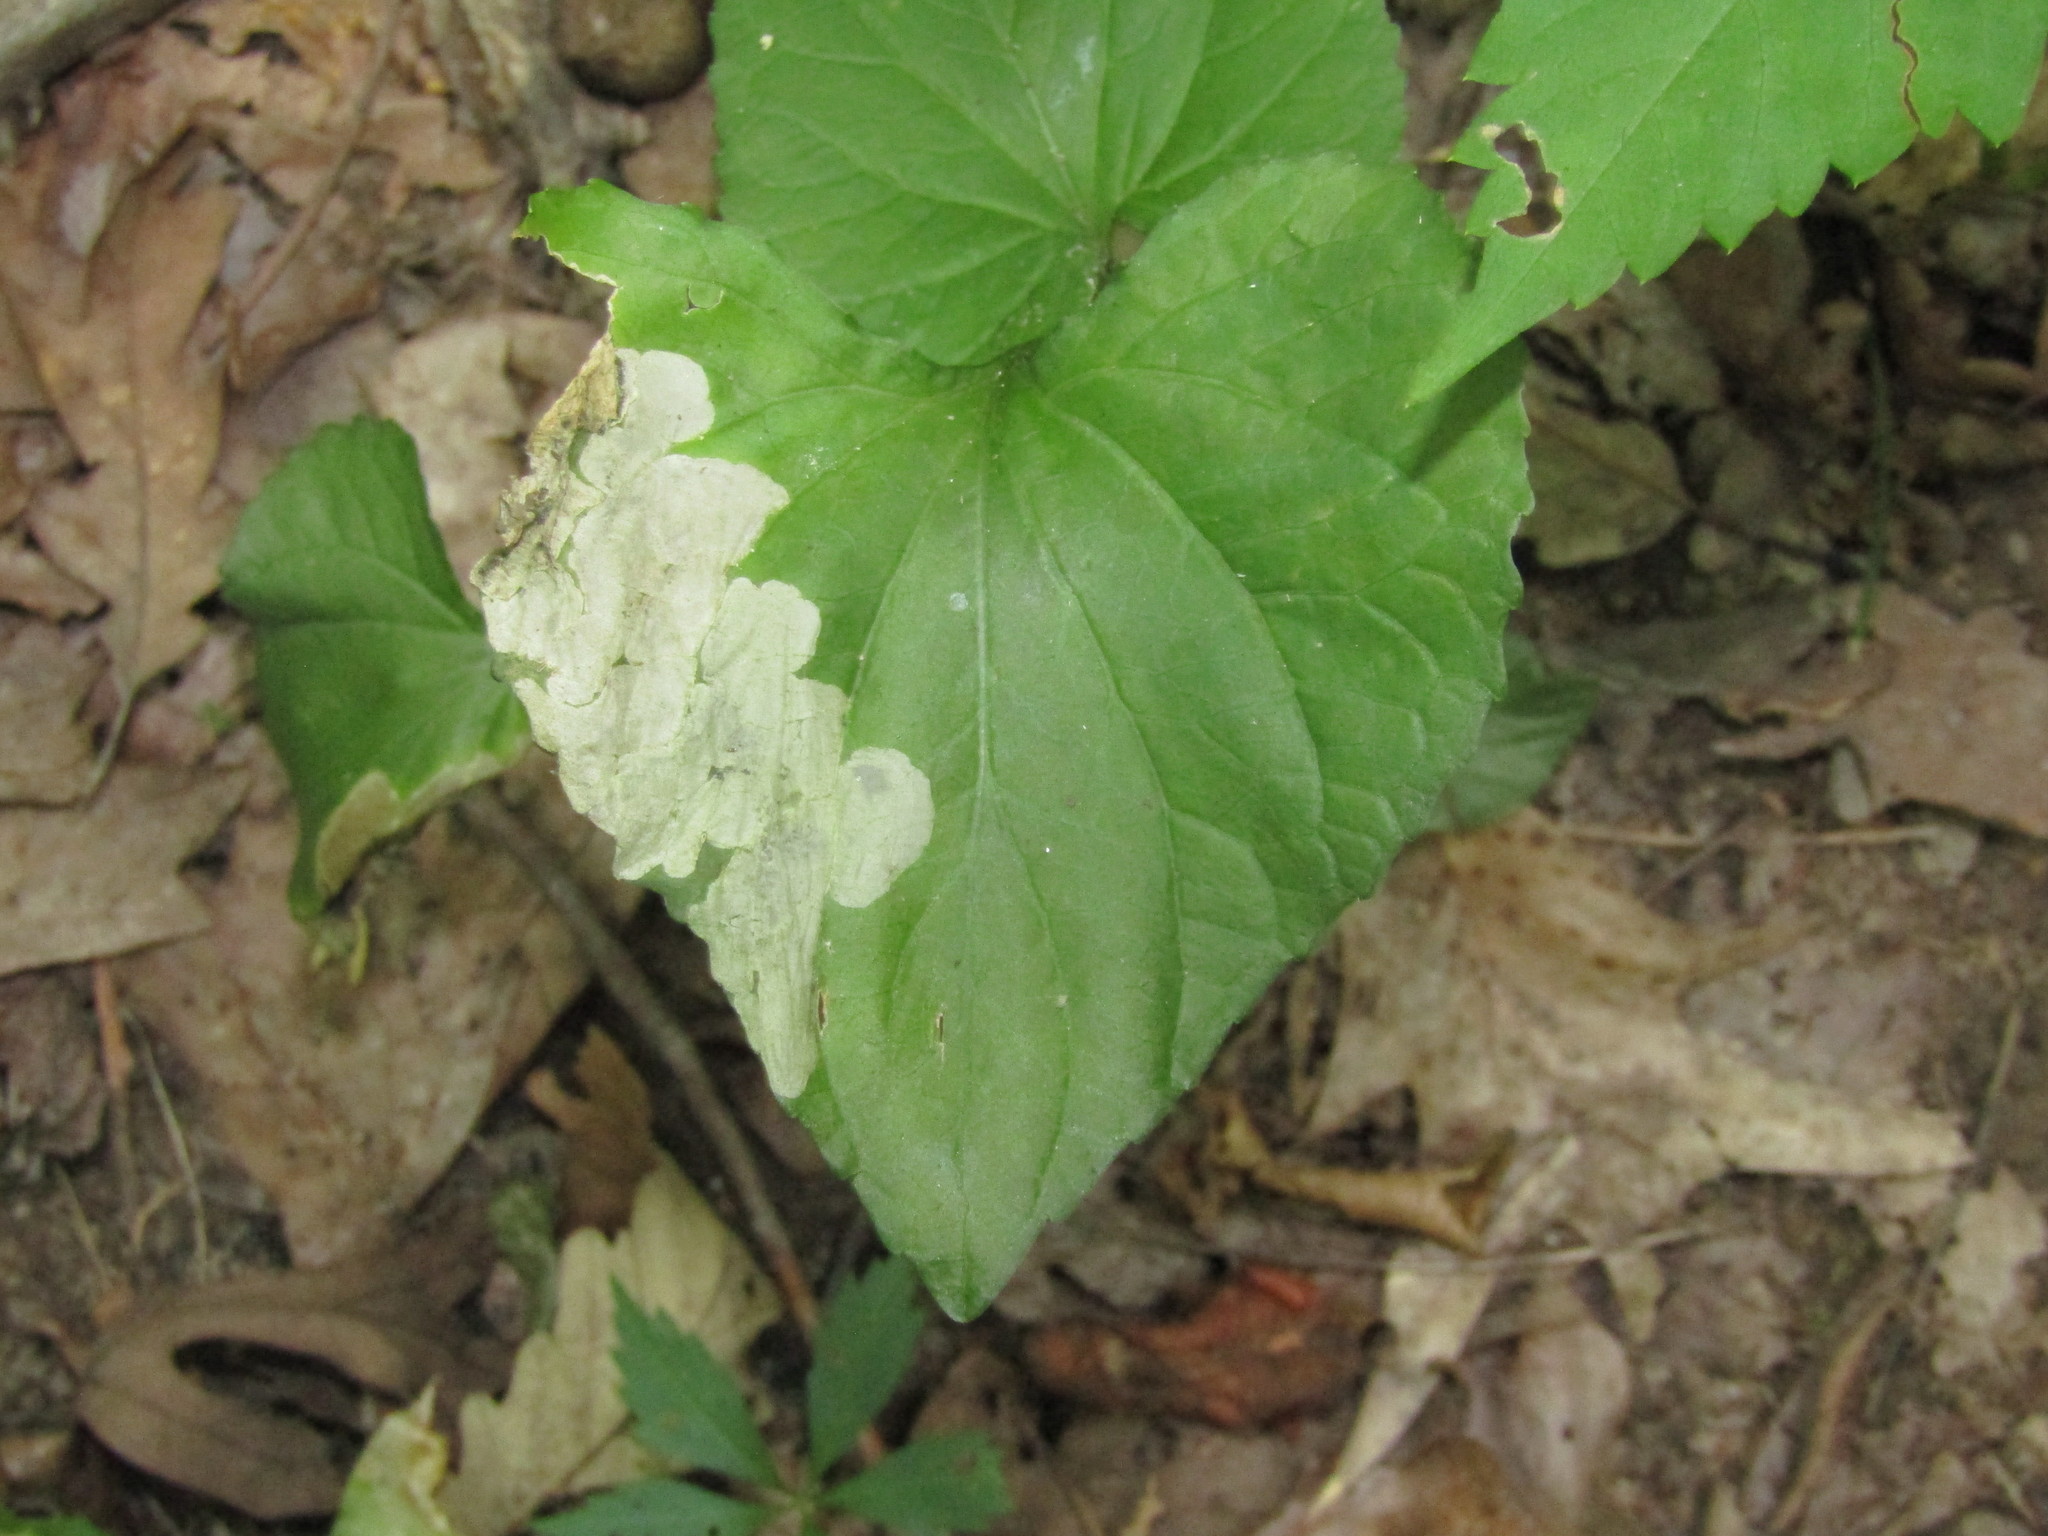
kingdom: Animalia
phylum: Arthropoda
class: Insecta
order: Hymenoptera
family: Tenthredinidae
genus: Nefusa
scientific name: Nefusa ambigua
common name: Violet leafmining sawfly
